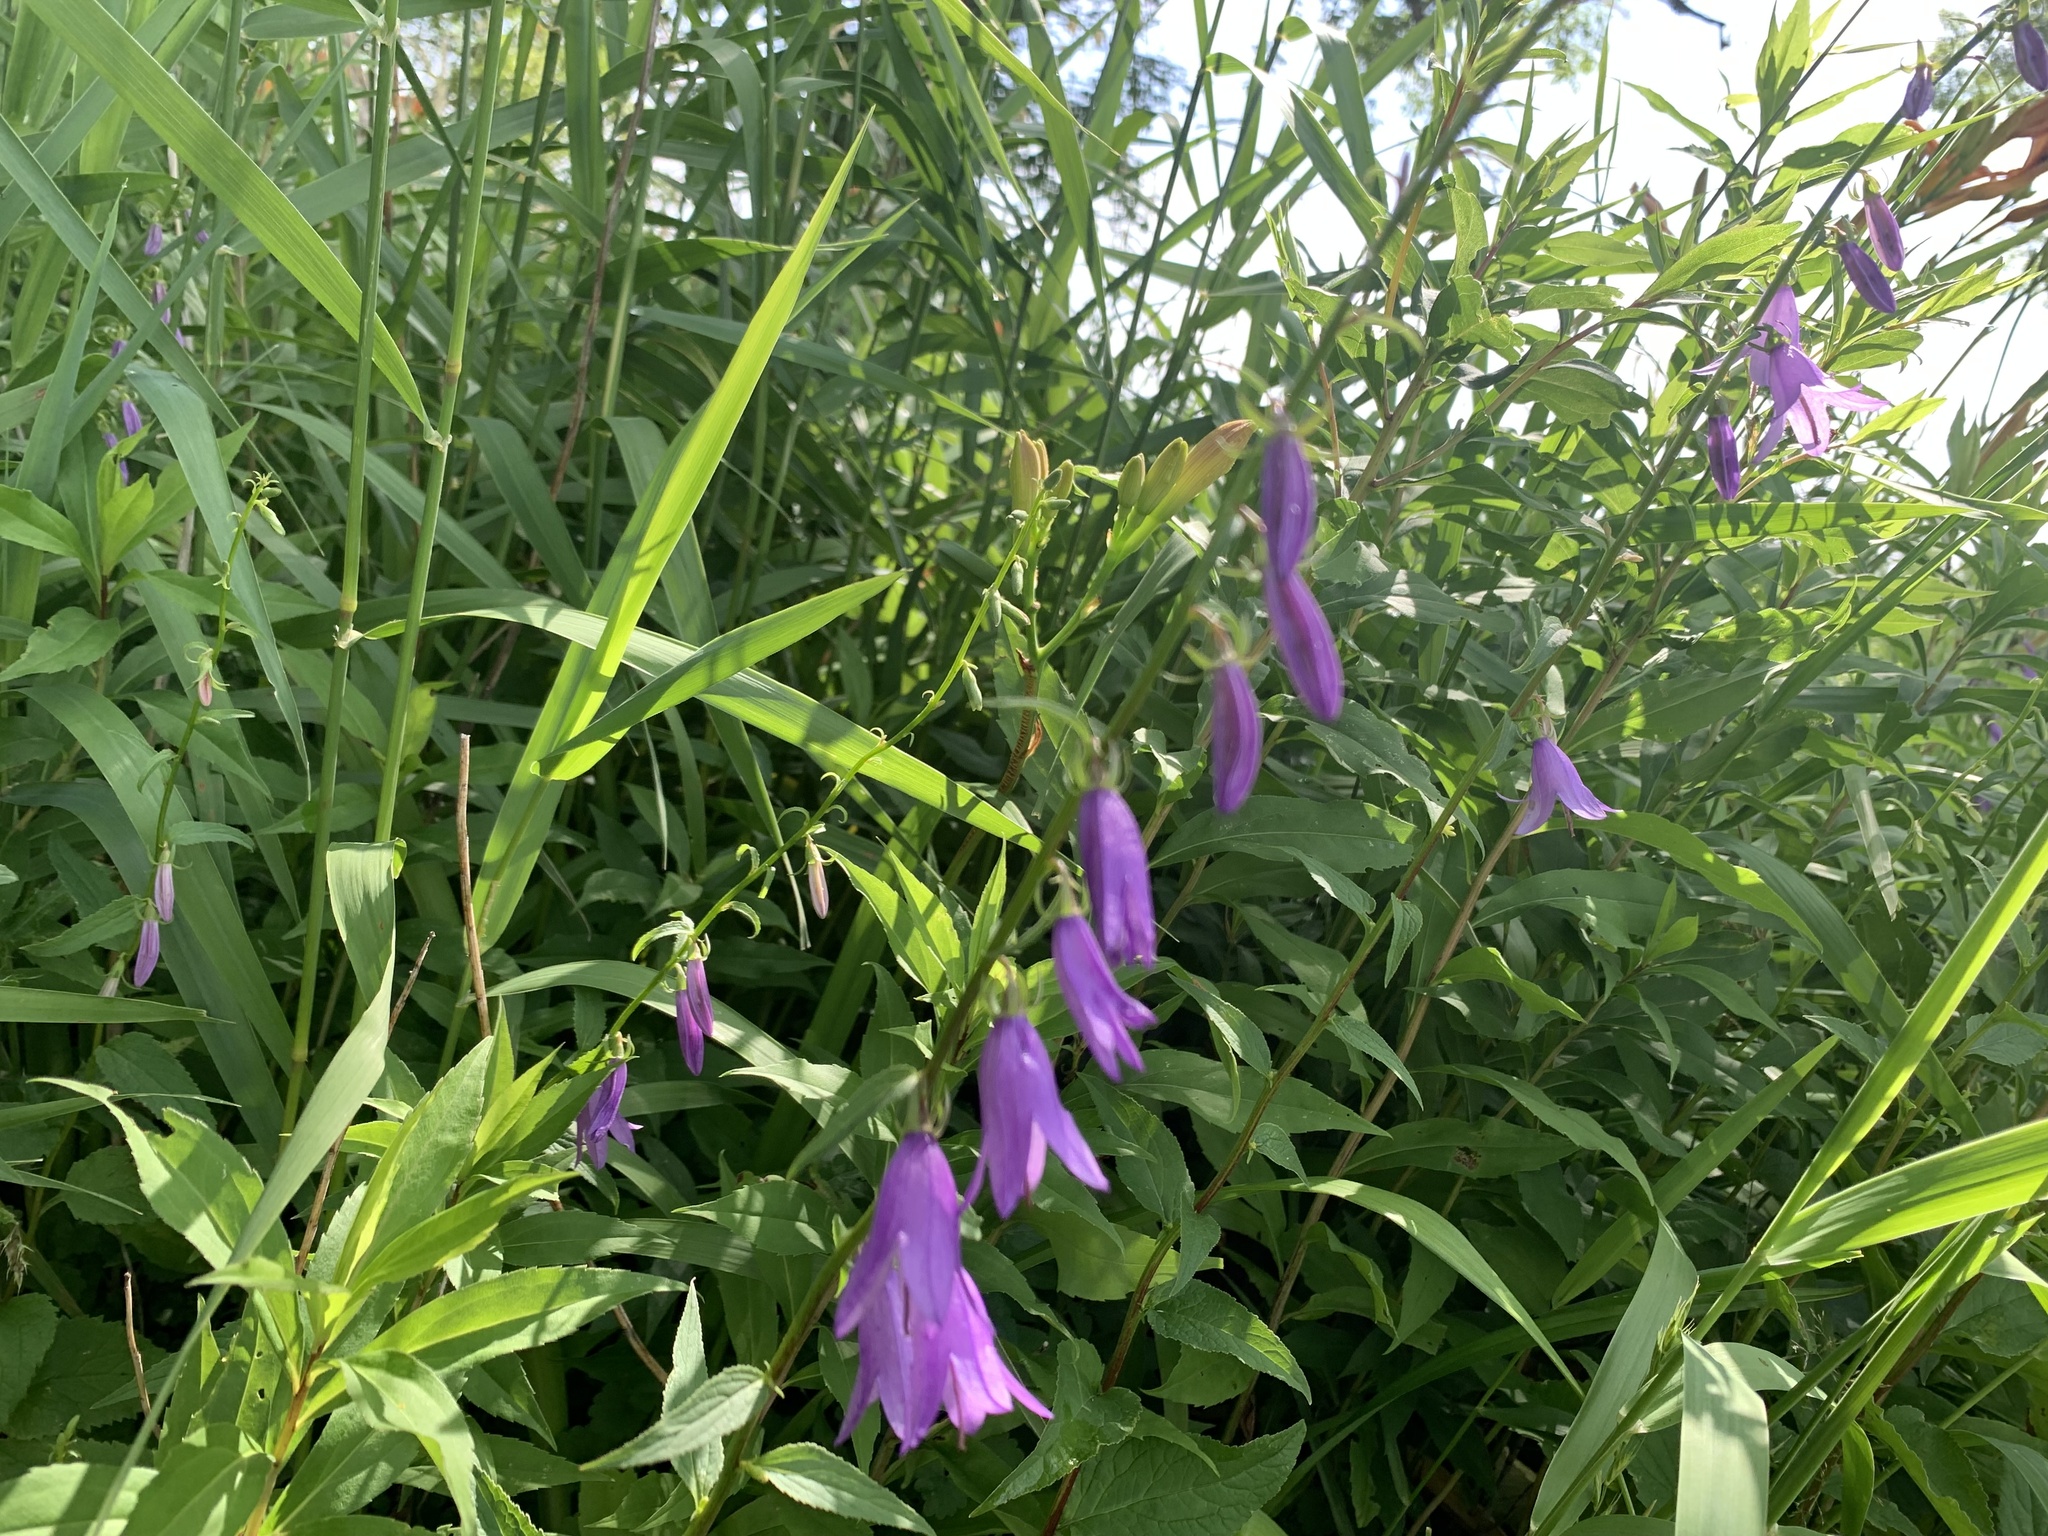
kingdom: Plantae
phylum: Tracheophyta
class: Magnoliopsida
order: Asterales
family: Campanulaceae
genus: Campanula
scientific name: Campanula rapunculoides
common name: Creeping bellflower
